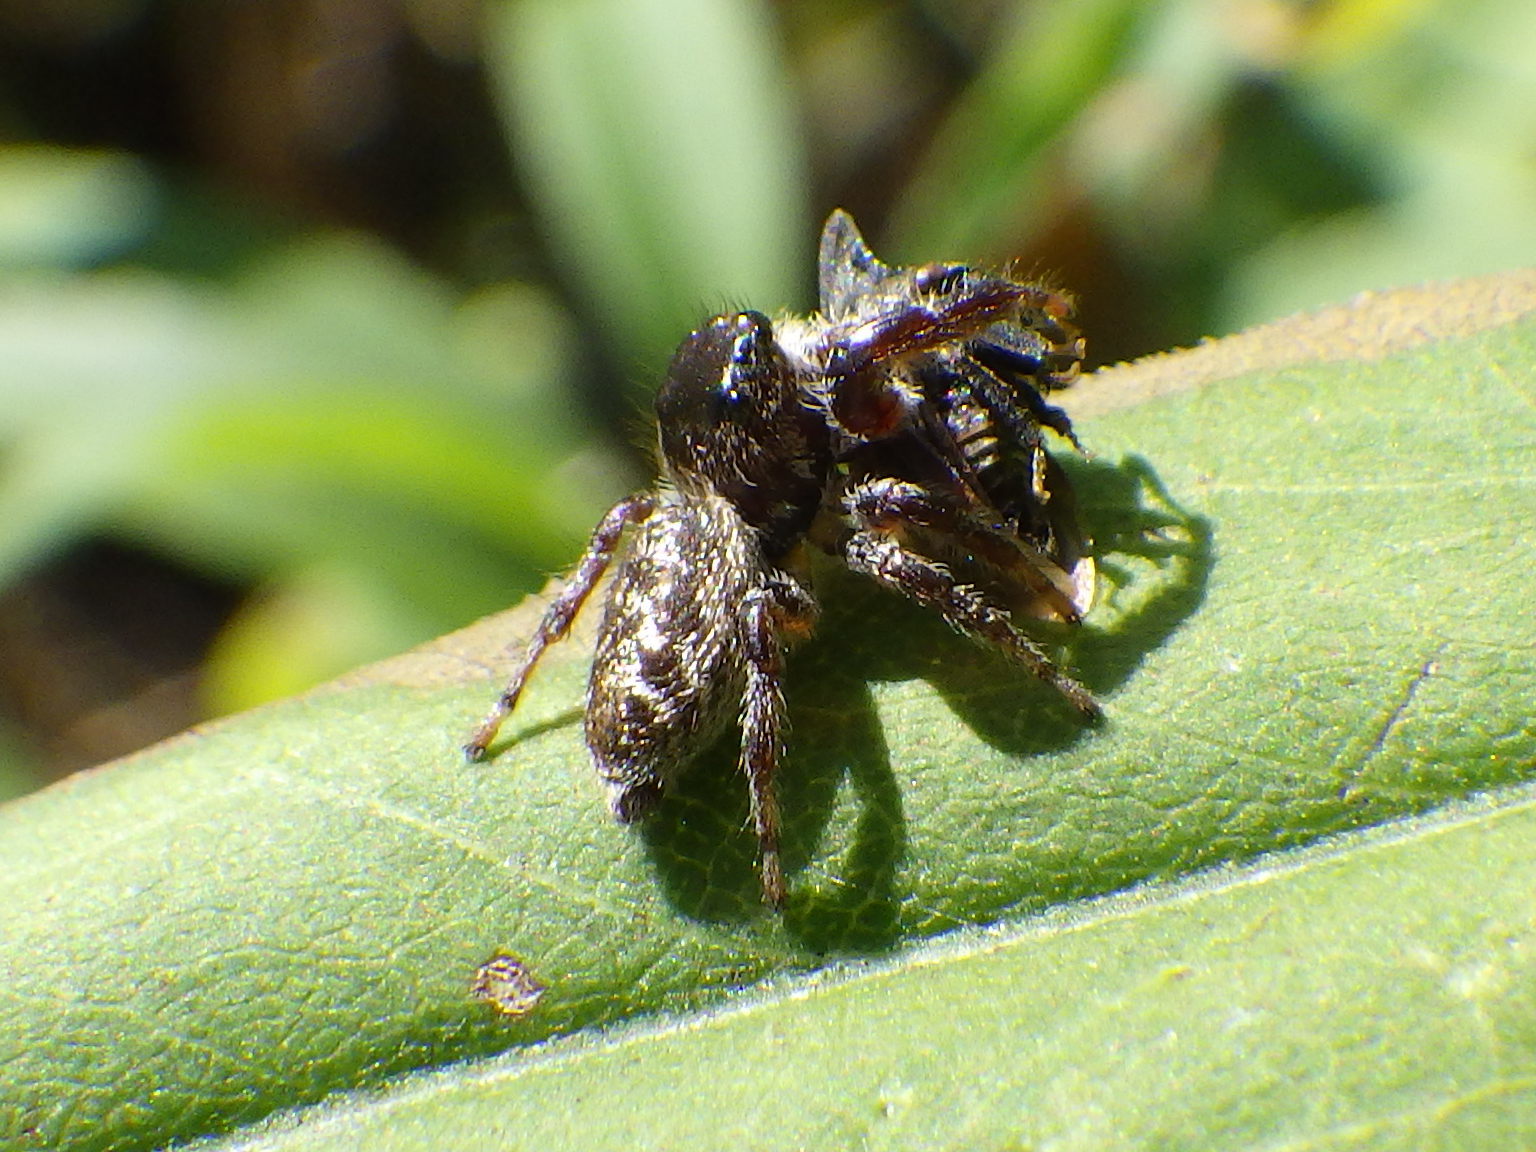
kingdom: Animalia
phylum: Arthropoda
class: Insecta
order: Hemiptera
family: Membracidae
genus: Enchenopa
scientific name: Enchenopa latipes
